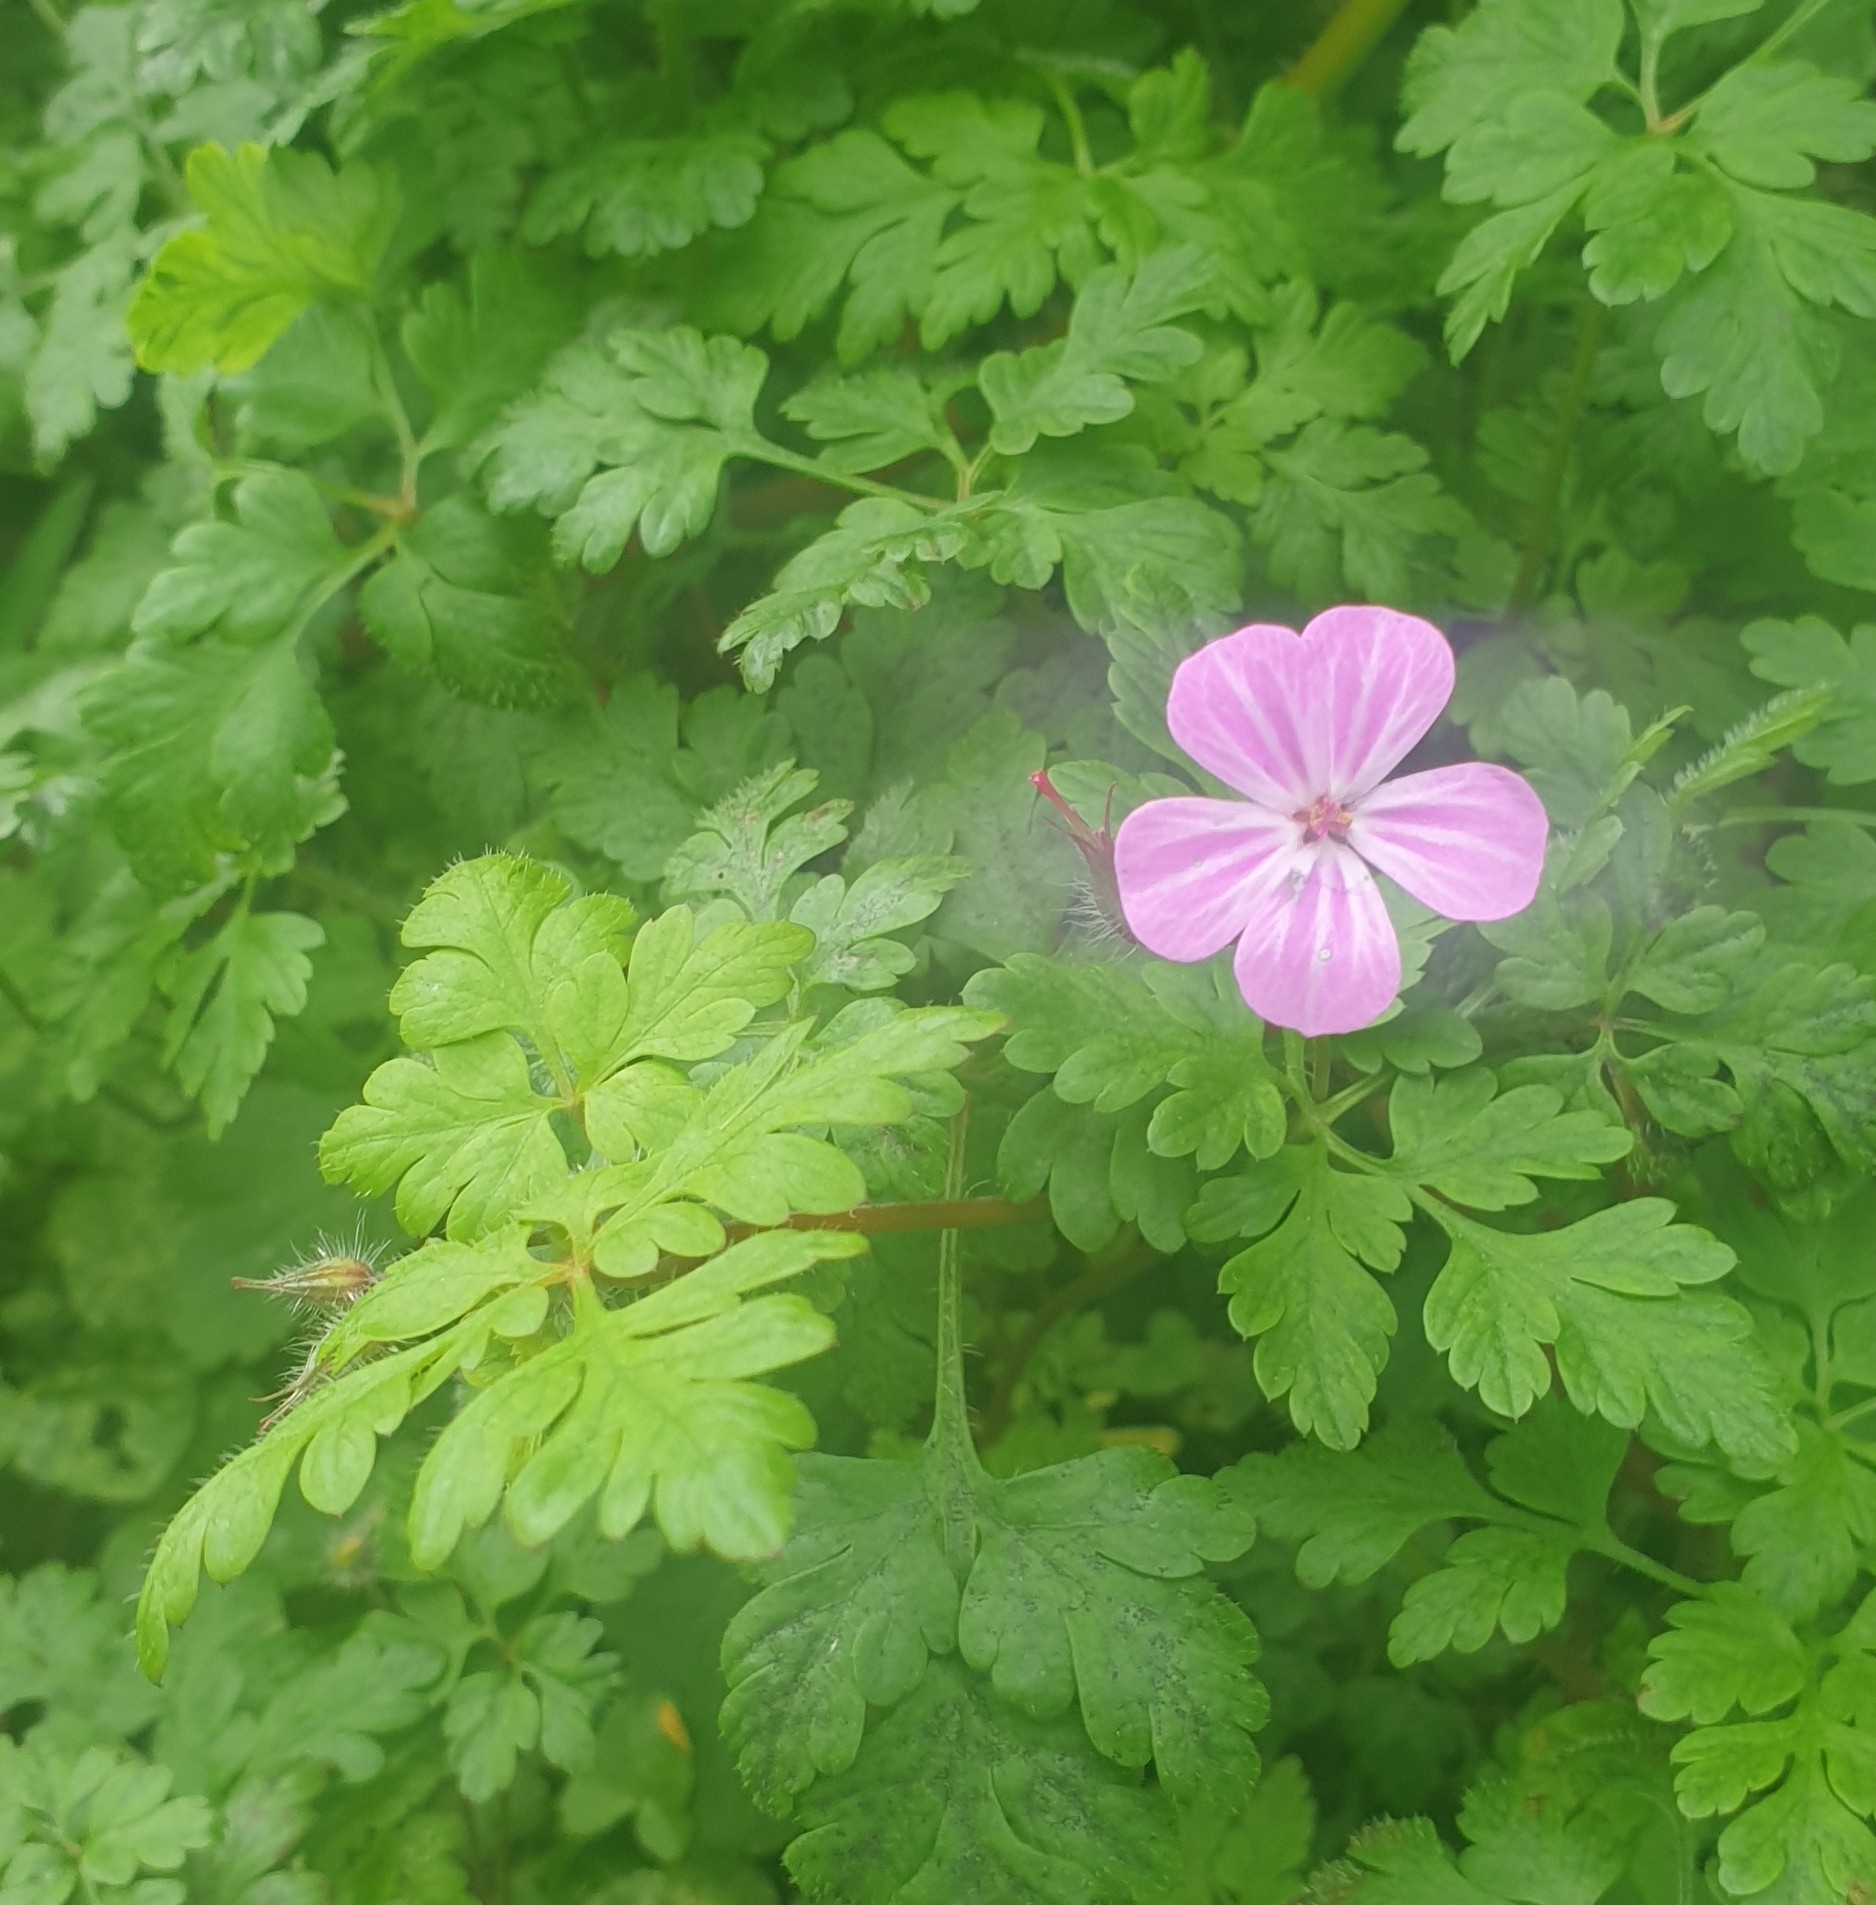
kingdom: Plantae
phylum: Tracheophyta
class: Magnoliopsida
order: Geraniales
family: Geraniaceae
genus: Geranium
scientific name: Geranium robertianum
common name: Herb-robert
